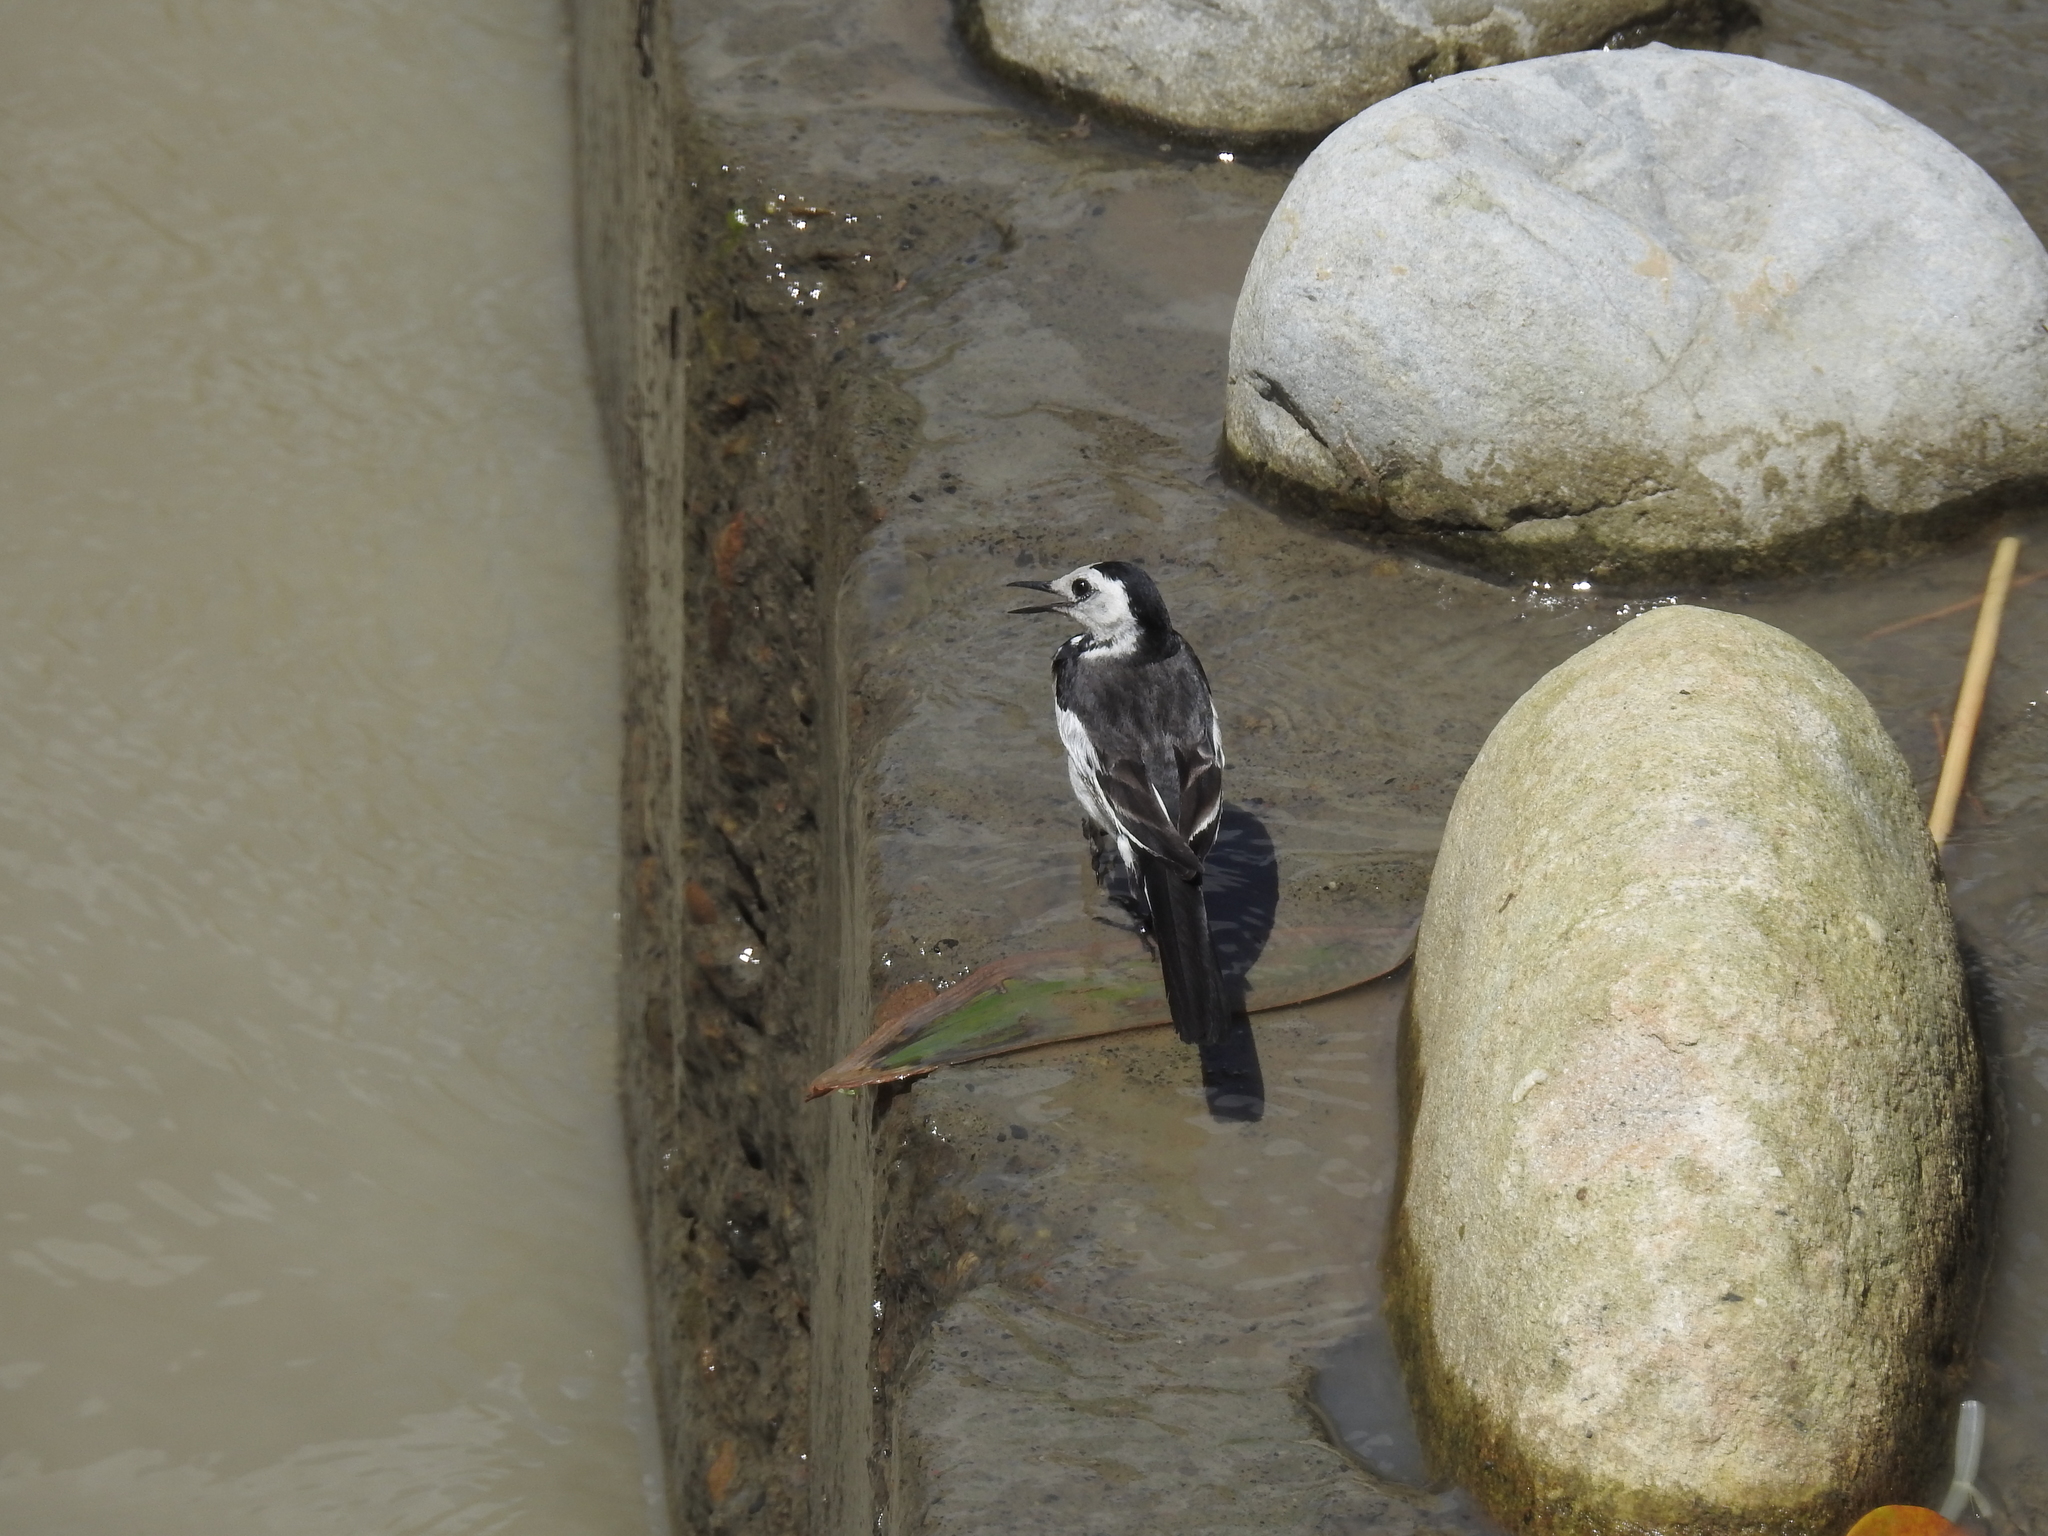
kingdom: Animalia
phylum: Chordata
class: Aves
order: Passeriformes
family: Motacillidae
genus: Motacilla
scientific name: Motacilla alba
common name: White wagtail
